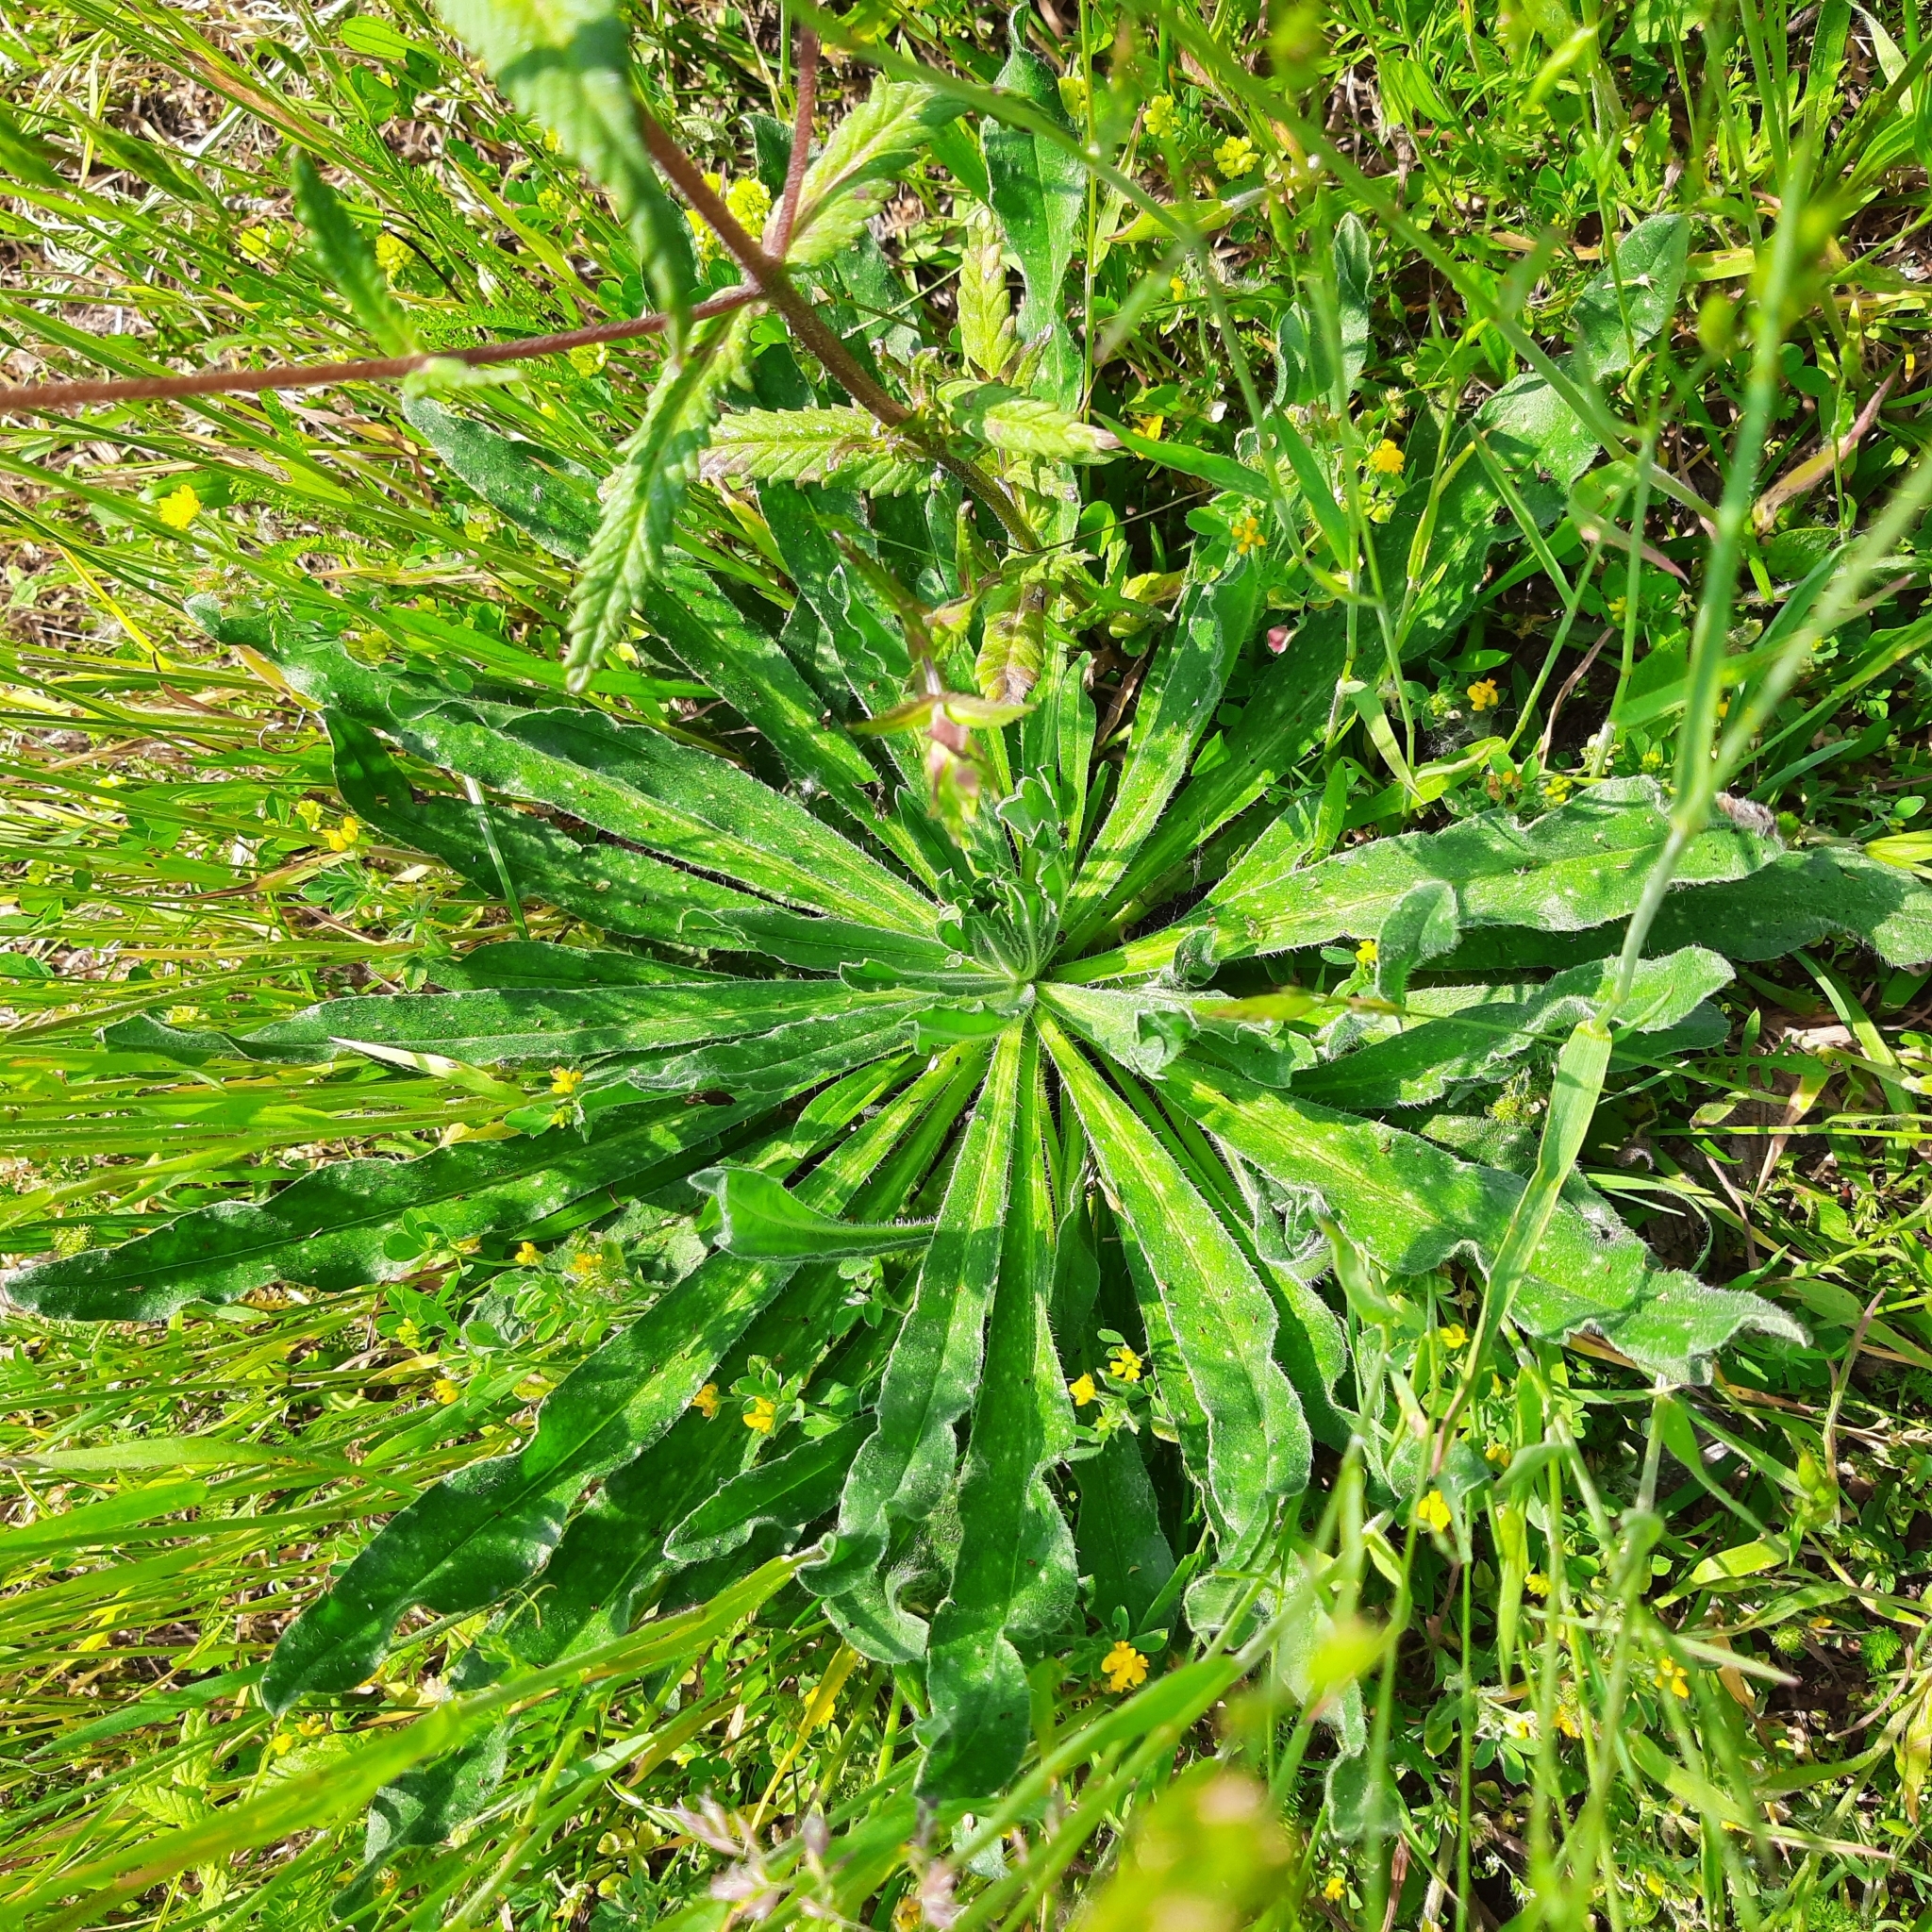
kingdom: Plantae
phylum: Tracheophyta
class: Magnoliopsida
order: Boraginales
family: Boraginaceae
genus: Echium
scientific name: Echium vulgare
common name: Common viper's bugloss
